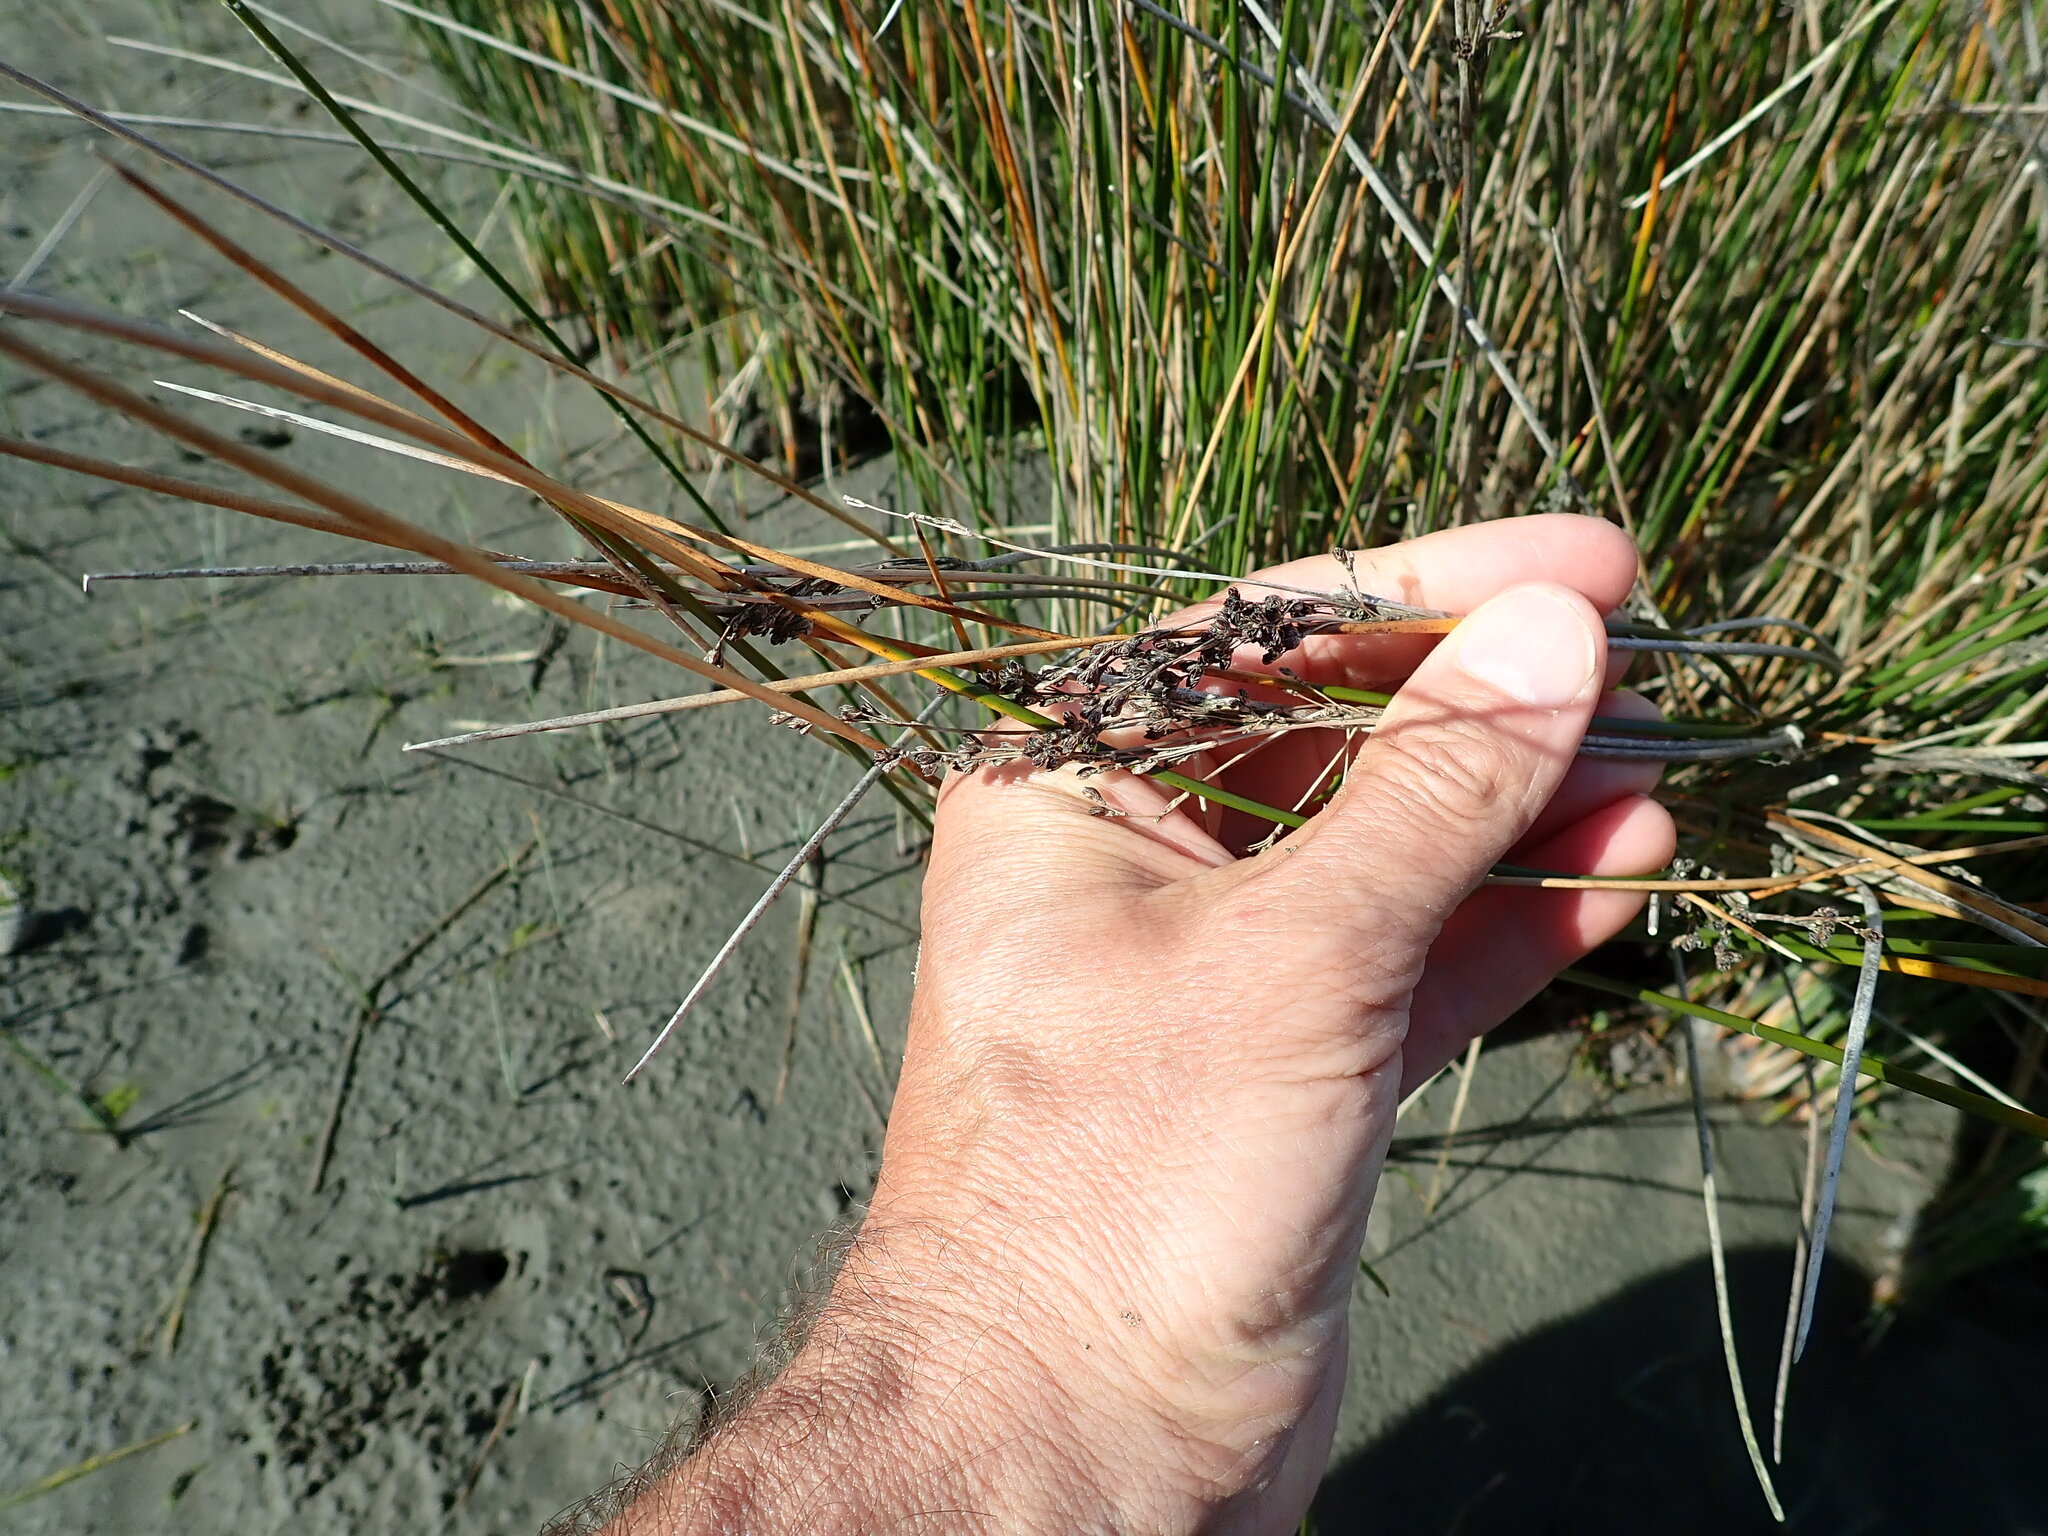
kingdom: Plantae
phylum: Tracheophyta
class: Liliopsida
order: Poales
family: Juncaceae
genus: Juncus
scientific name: Juncus kraussii
